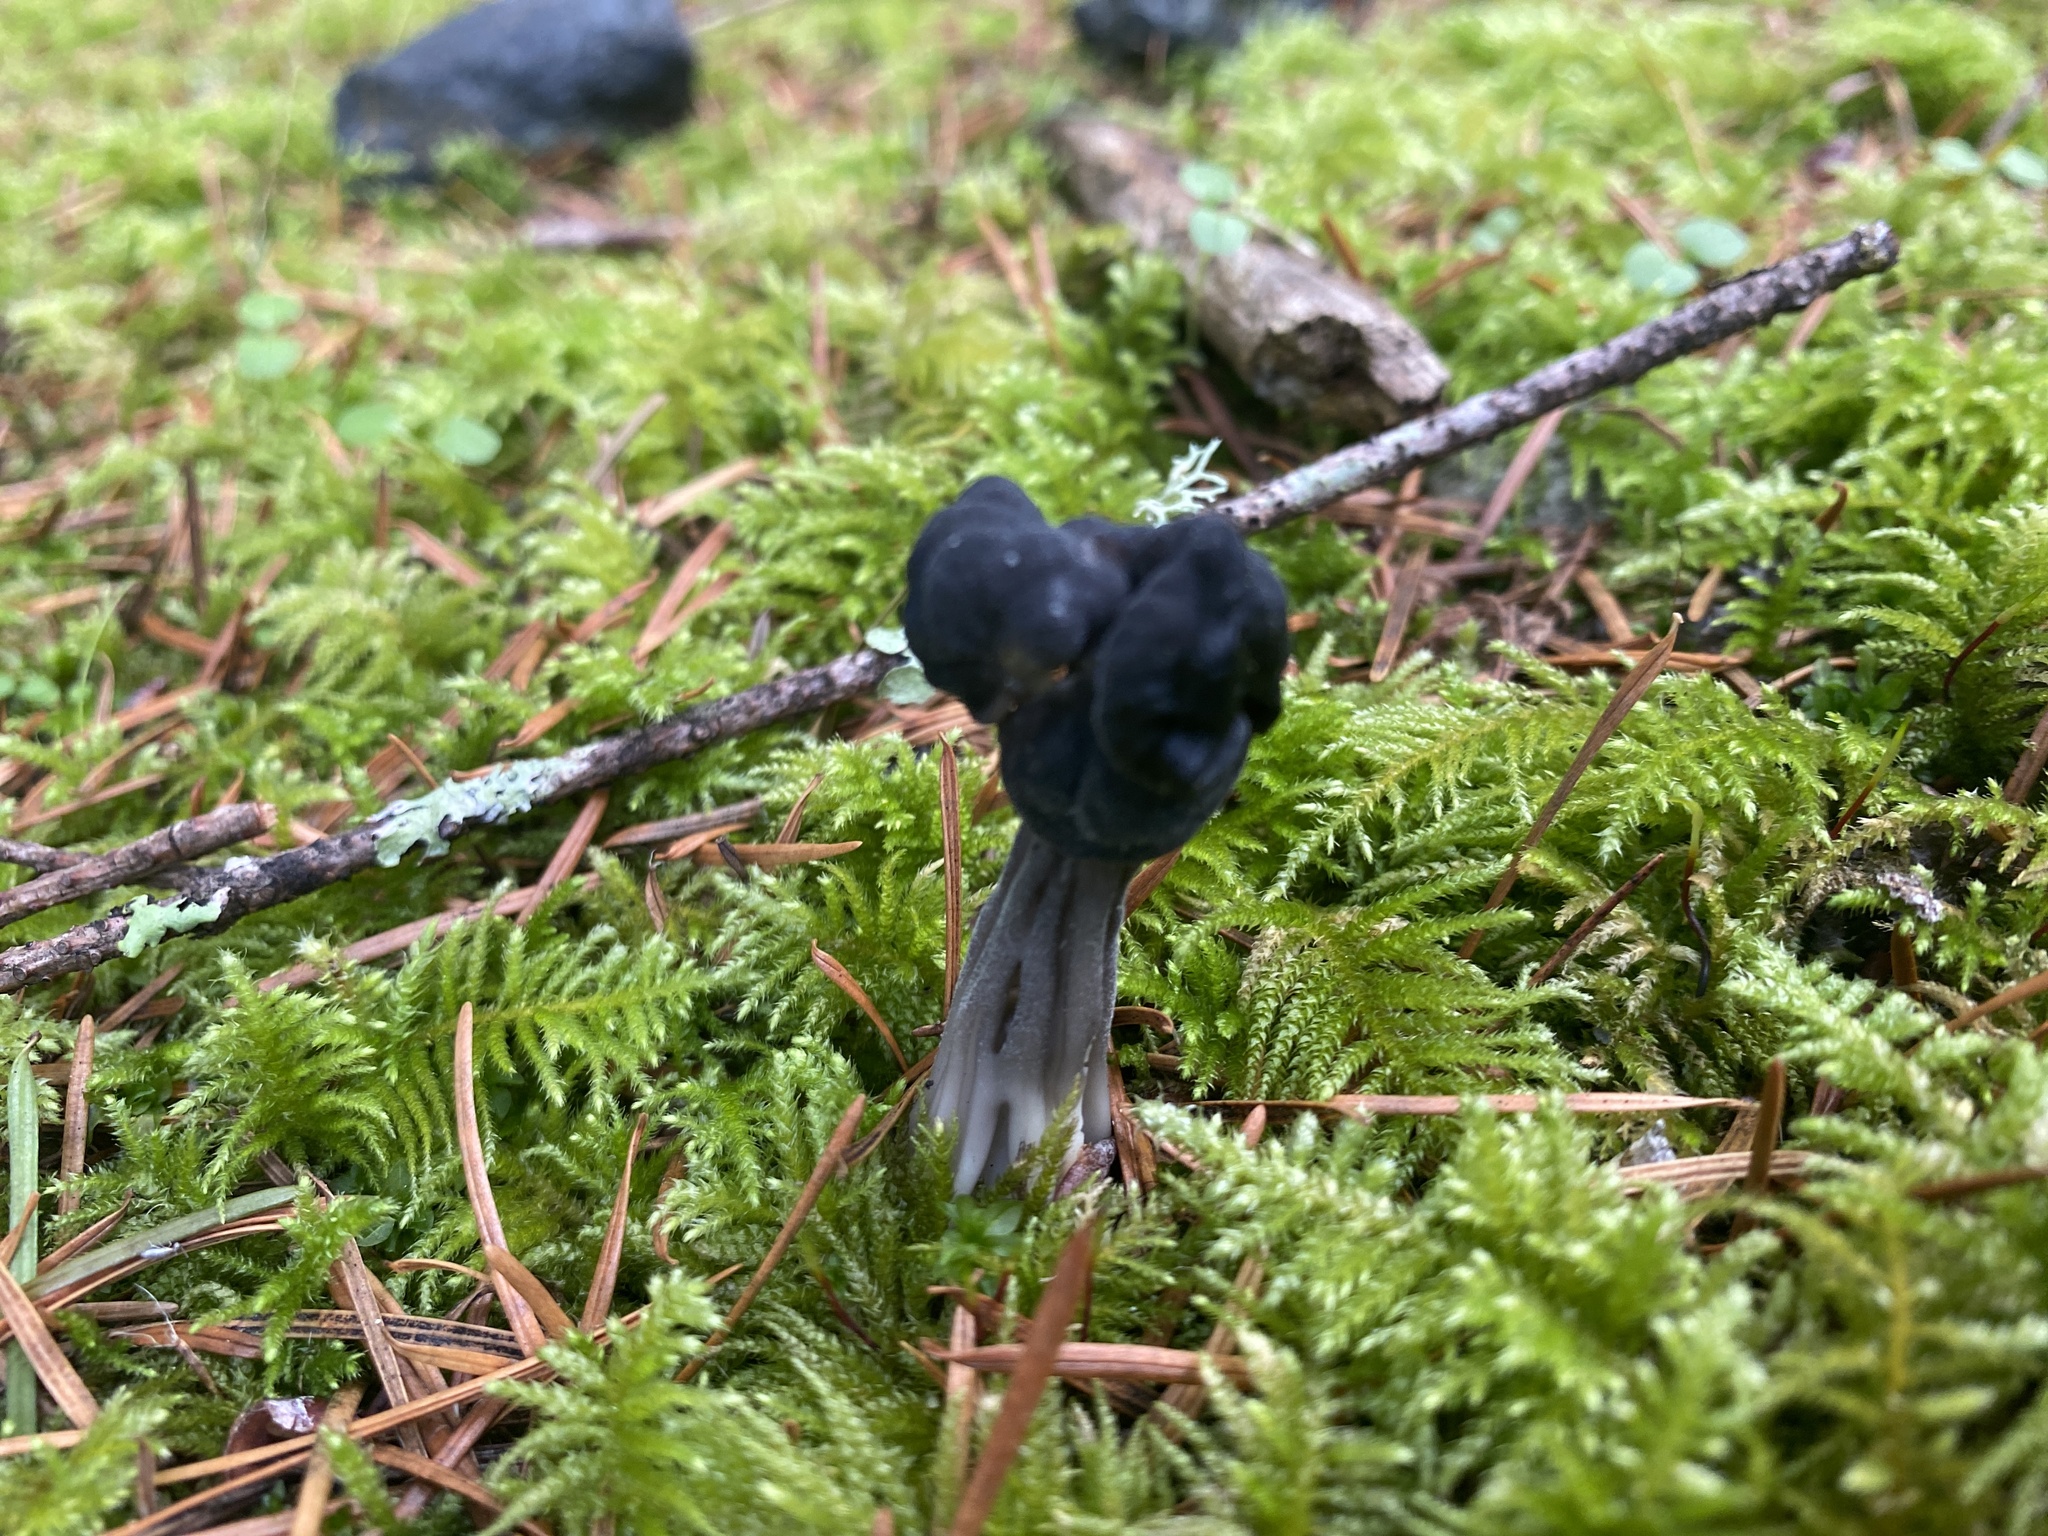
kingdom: Fungi
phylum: Ascomycota
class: Pezizomycetes
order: Pezizales
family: Helvellaceae
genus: Helvella
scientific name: Helvella vespertina
